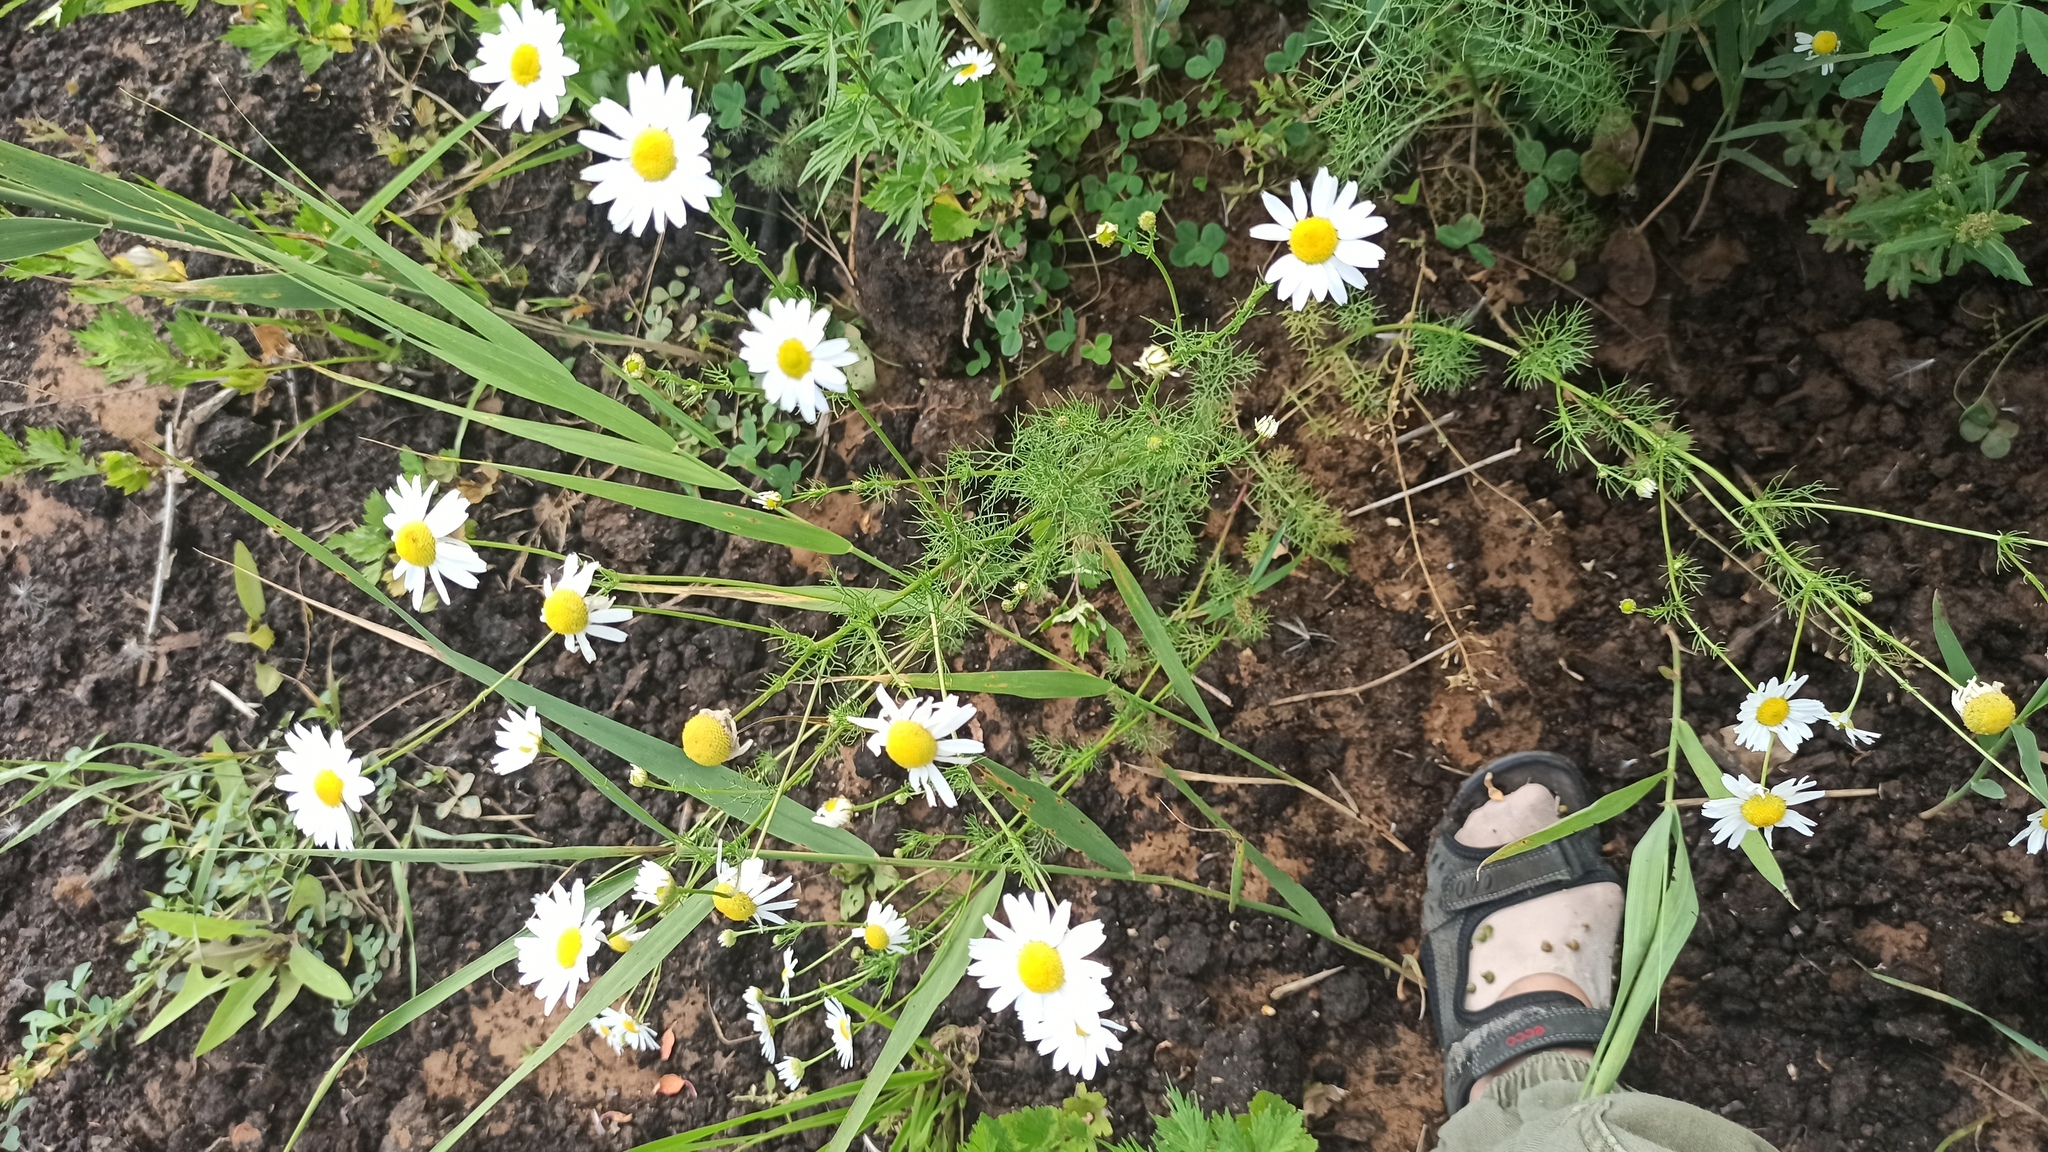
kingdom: Plantae
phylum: Tracheophyta
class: Magnoliopsida
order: Asterales
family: Asteraceae
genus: Tripleurospermum
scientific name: Tripleurospermum inodorum
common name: Scentless mayweed
